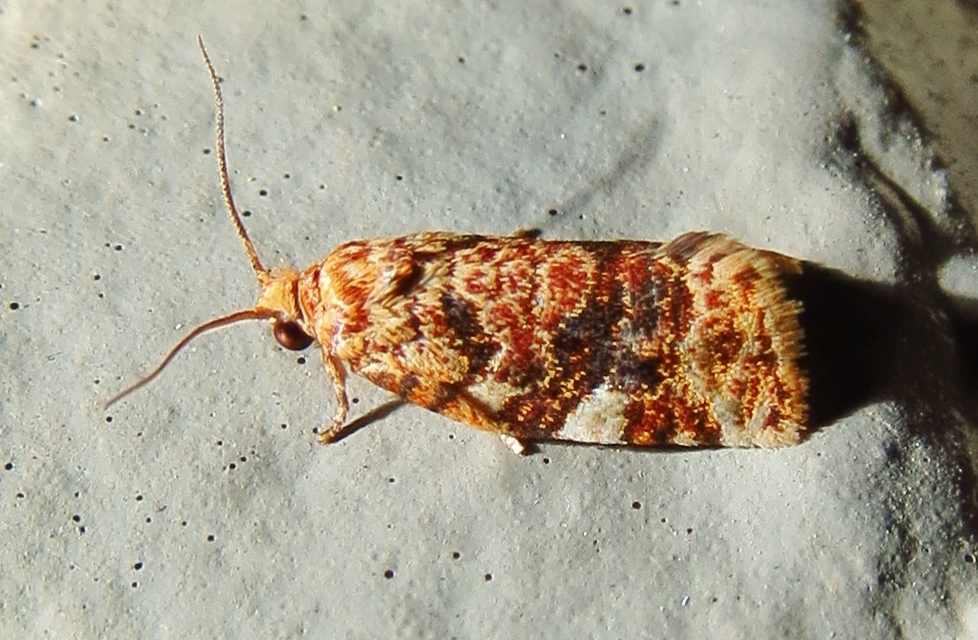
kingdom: Animalia
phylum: Arthropoda
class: Insecta
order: Lepidoptera
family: Tortricidae
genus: Archips
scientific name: Archips argyrospila
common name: Fruit-tree leafroller moth
